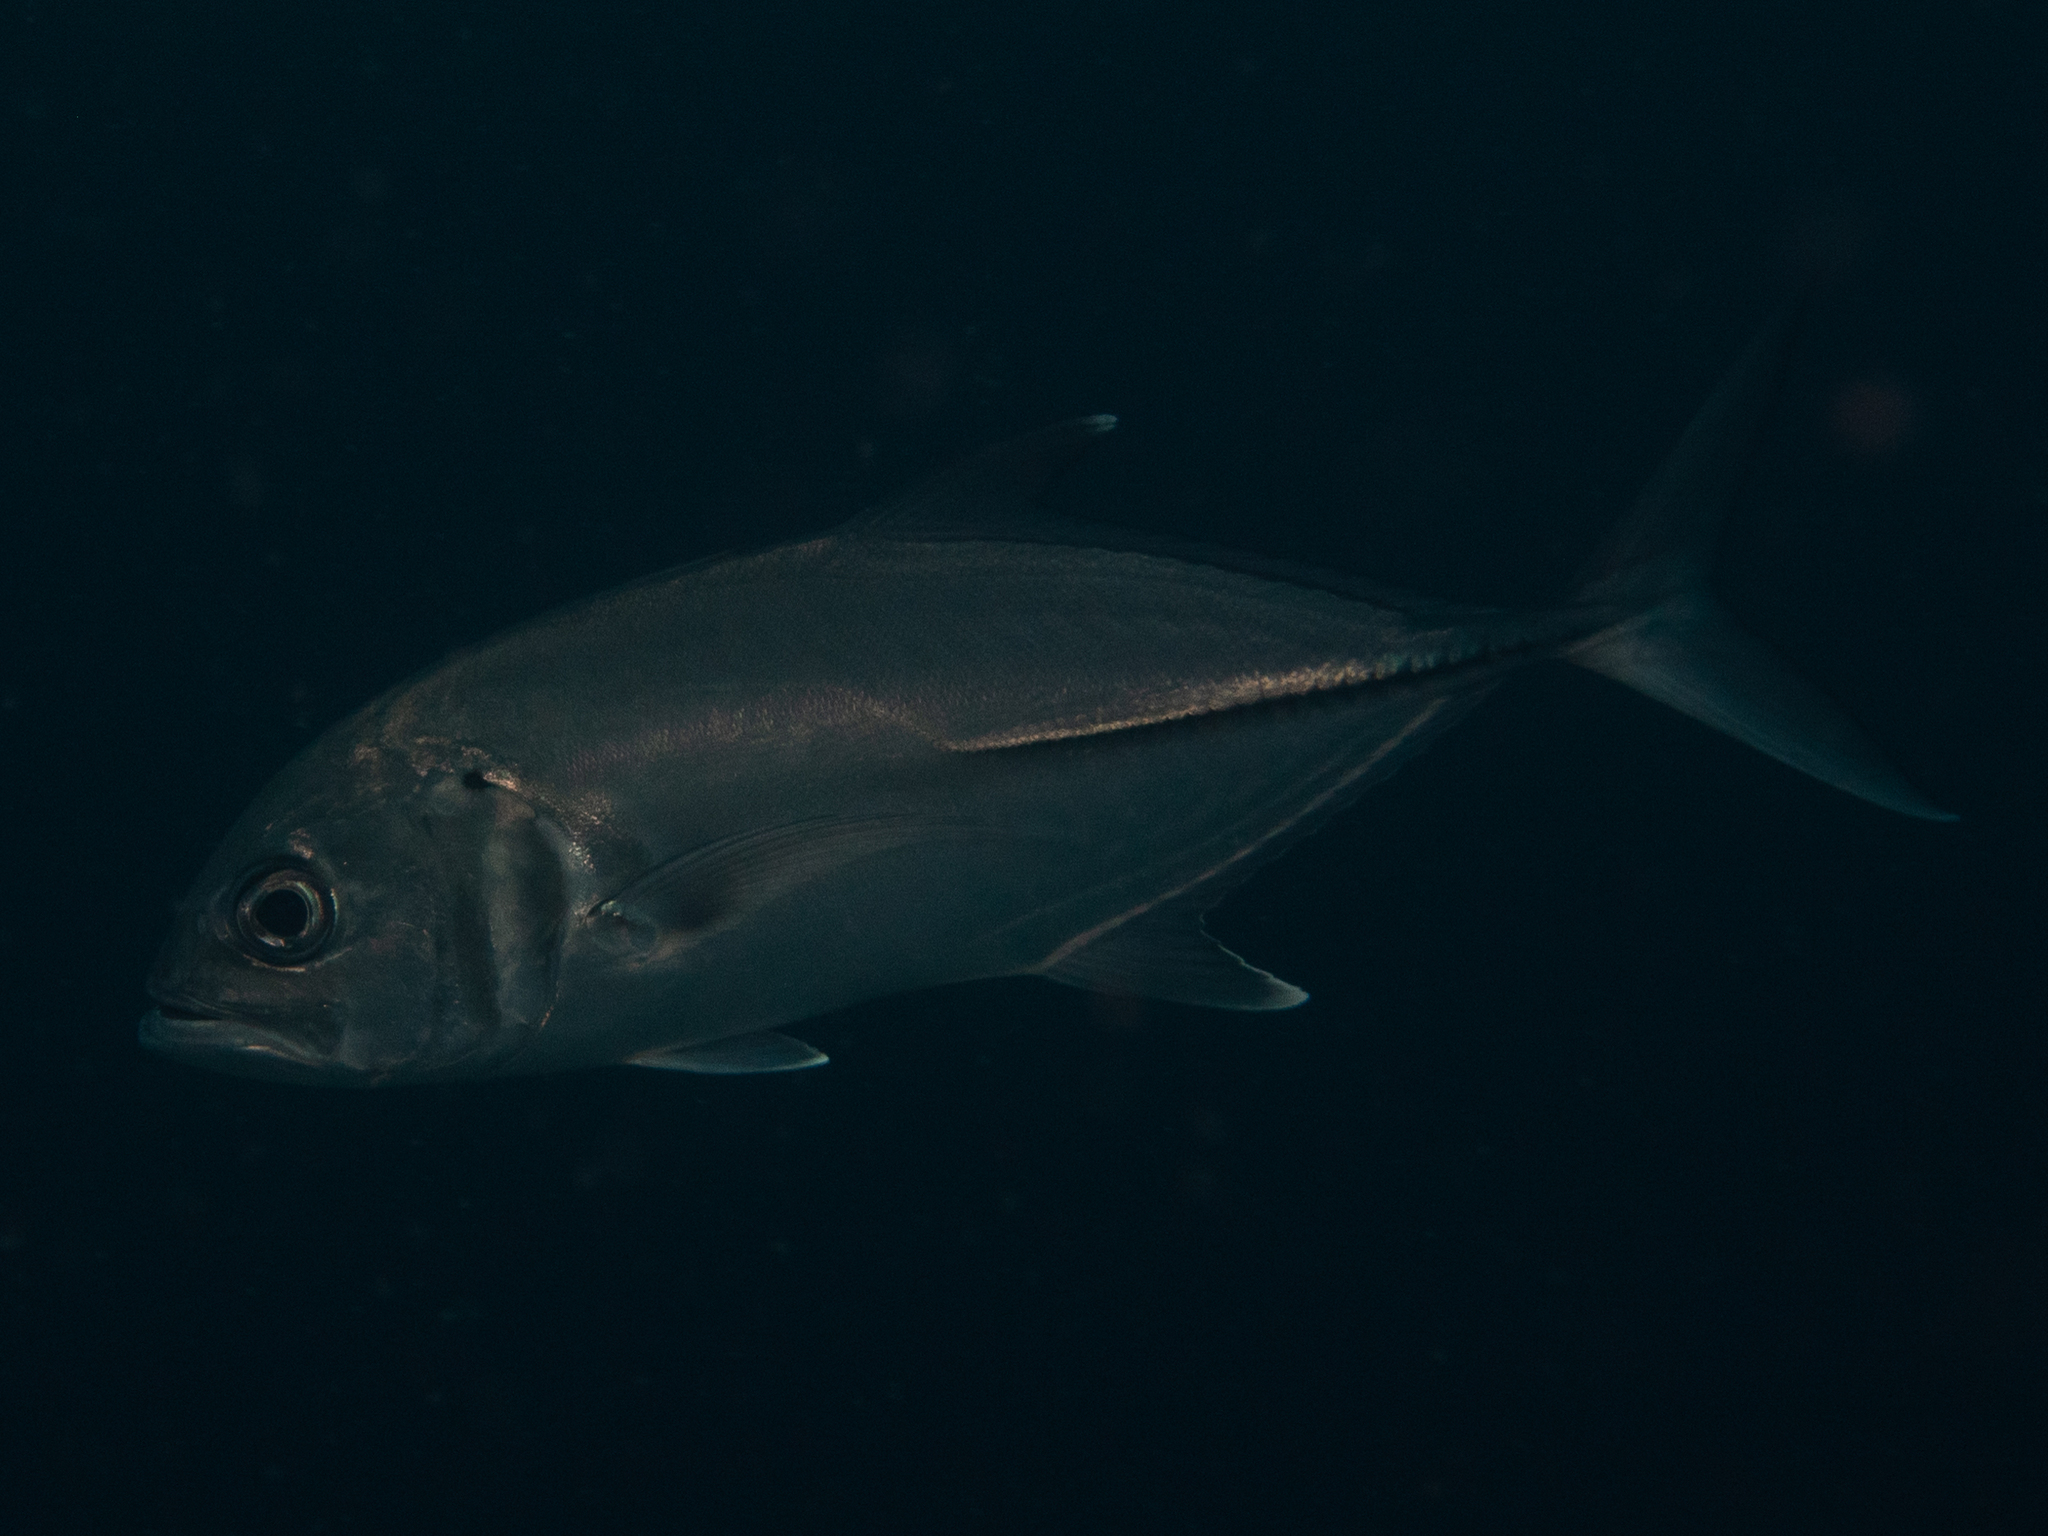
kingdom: Animalia
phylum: Chordata
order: Perciformes
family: Carangidae
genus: Caranx
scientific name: Caranx sexfasciatus
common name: Bigeye trevally
